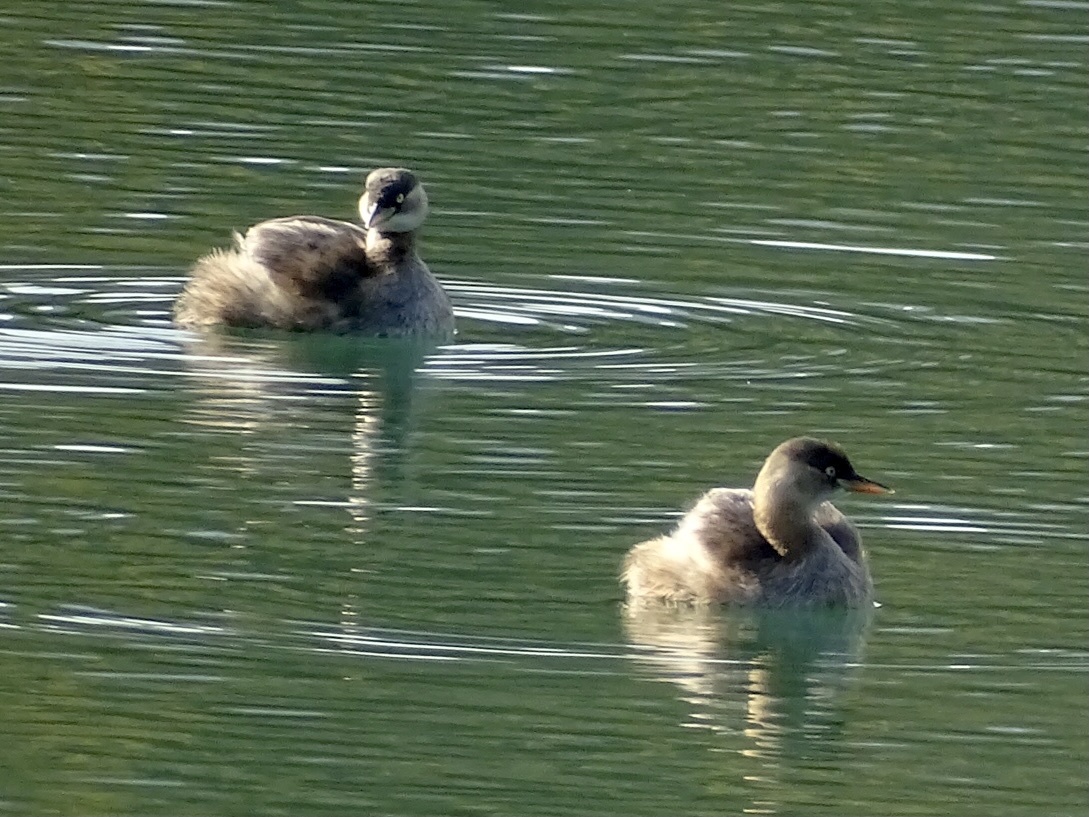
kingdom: Animalia
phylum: Chordata
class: Aves
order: Podicipediformes
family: Podicipedidae
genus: Tachybaptus
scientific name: Tachybaptus ruficollis
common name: Little grebe
